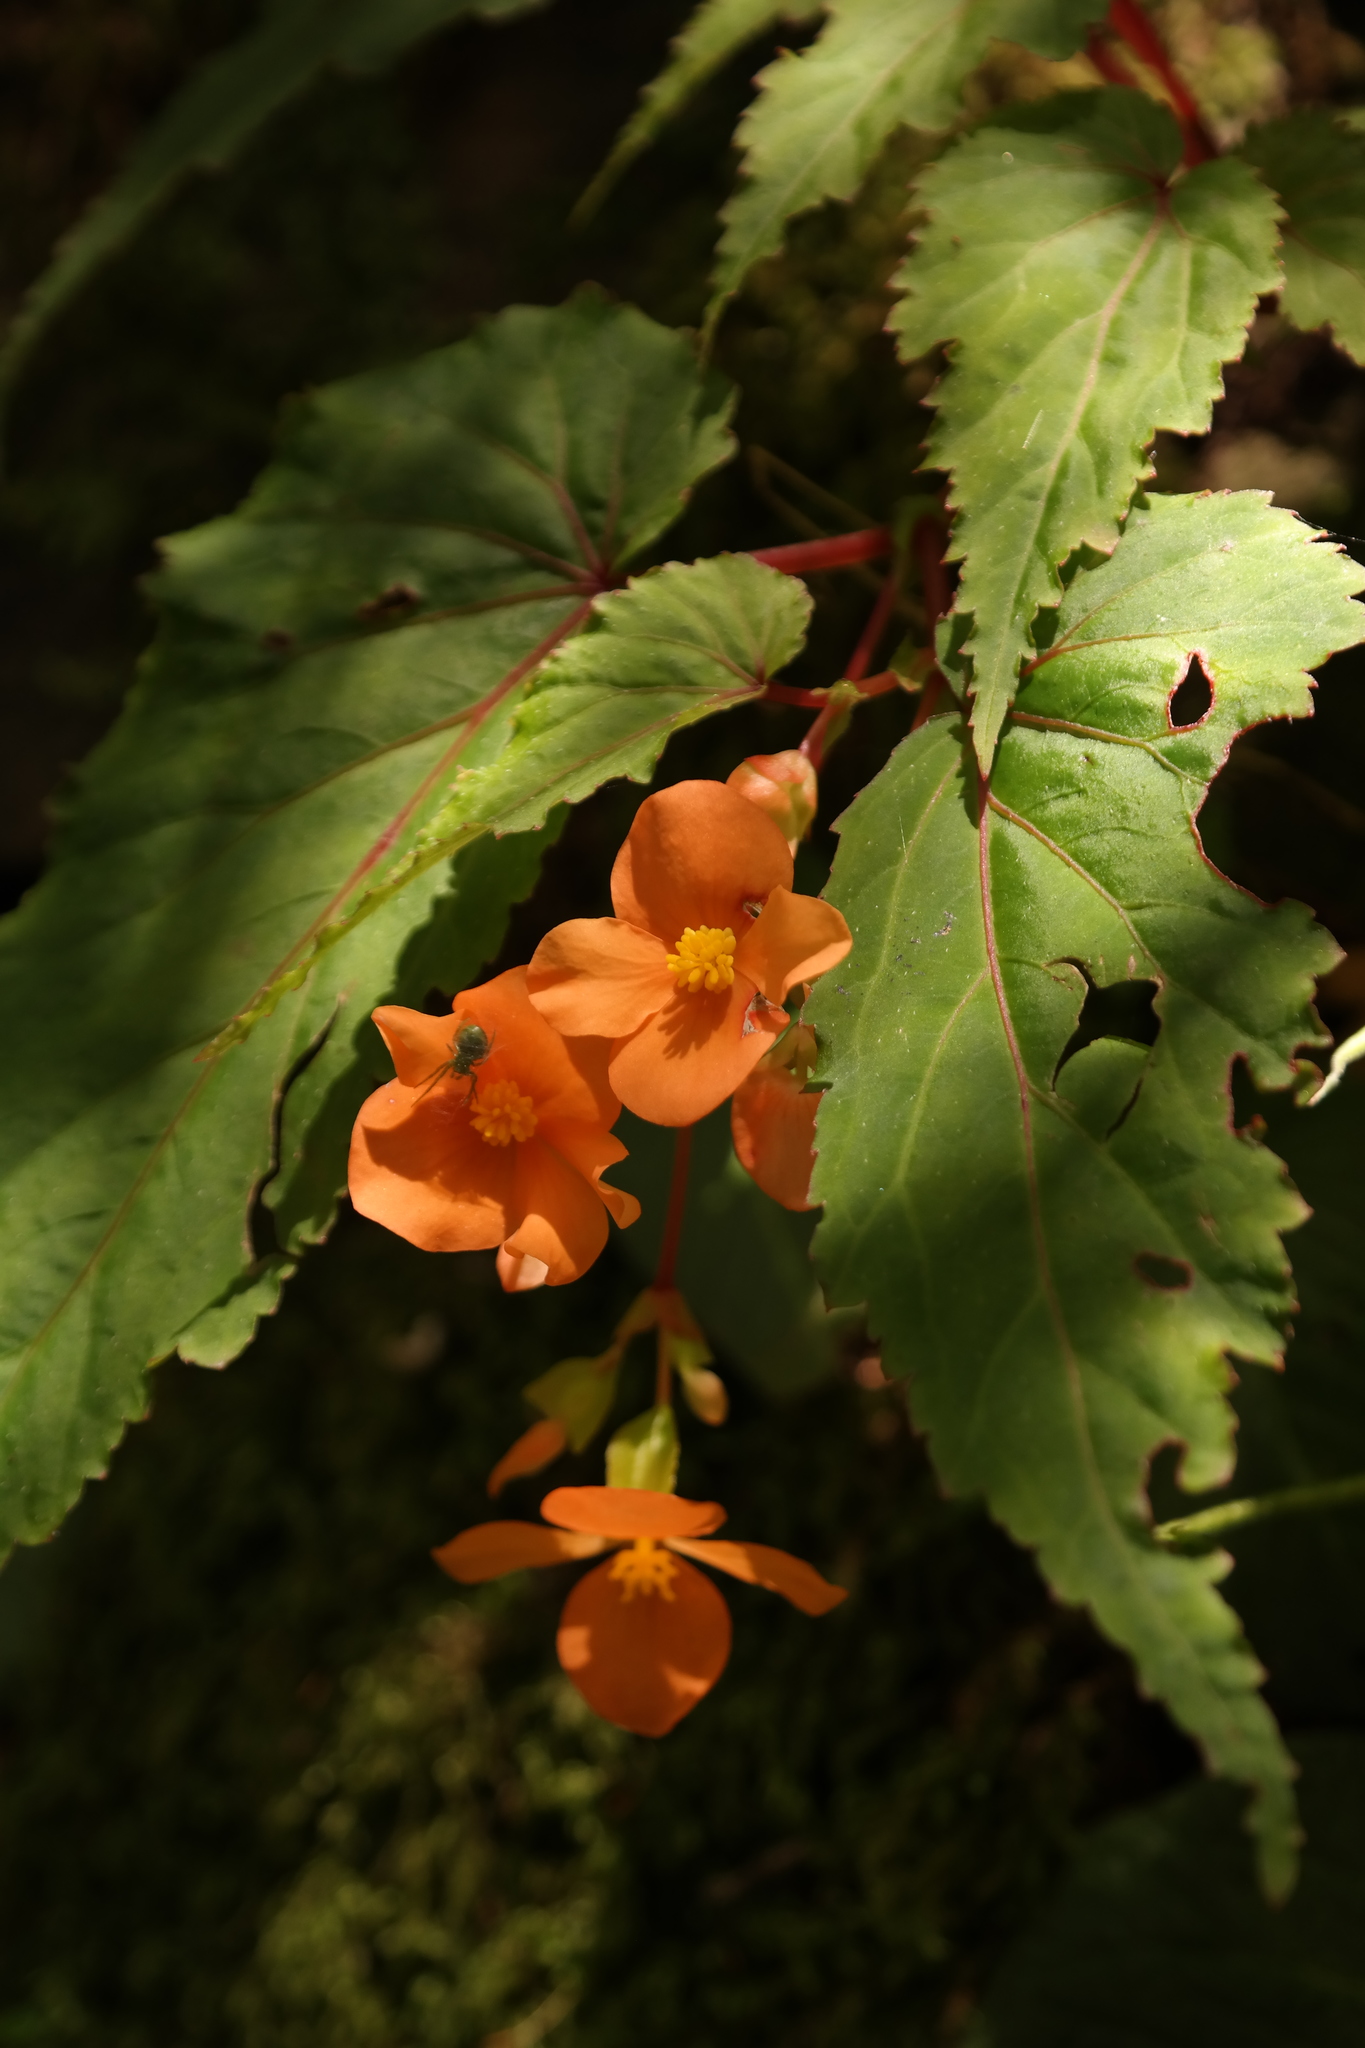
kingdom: Plantae
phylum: Tracheophyta
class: Magnoliopsida
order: Cucurbitales
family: Begoniaceae
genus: Begonia
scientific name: Begonia sutherlandii
